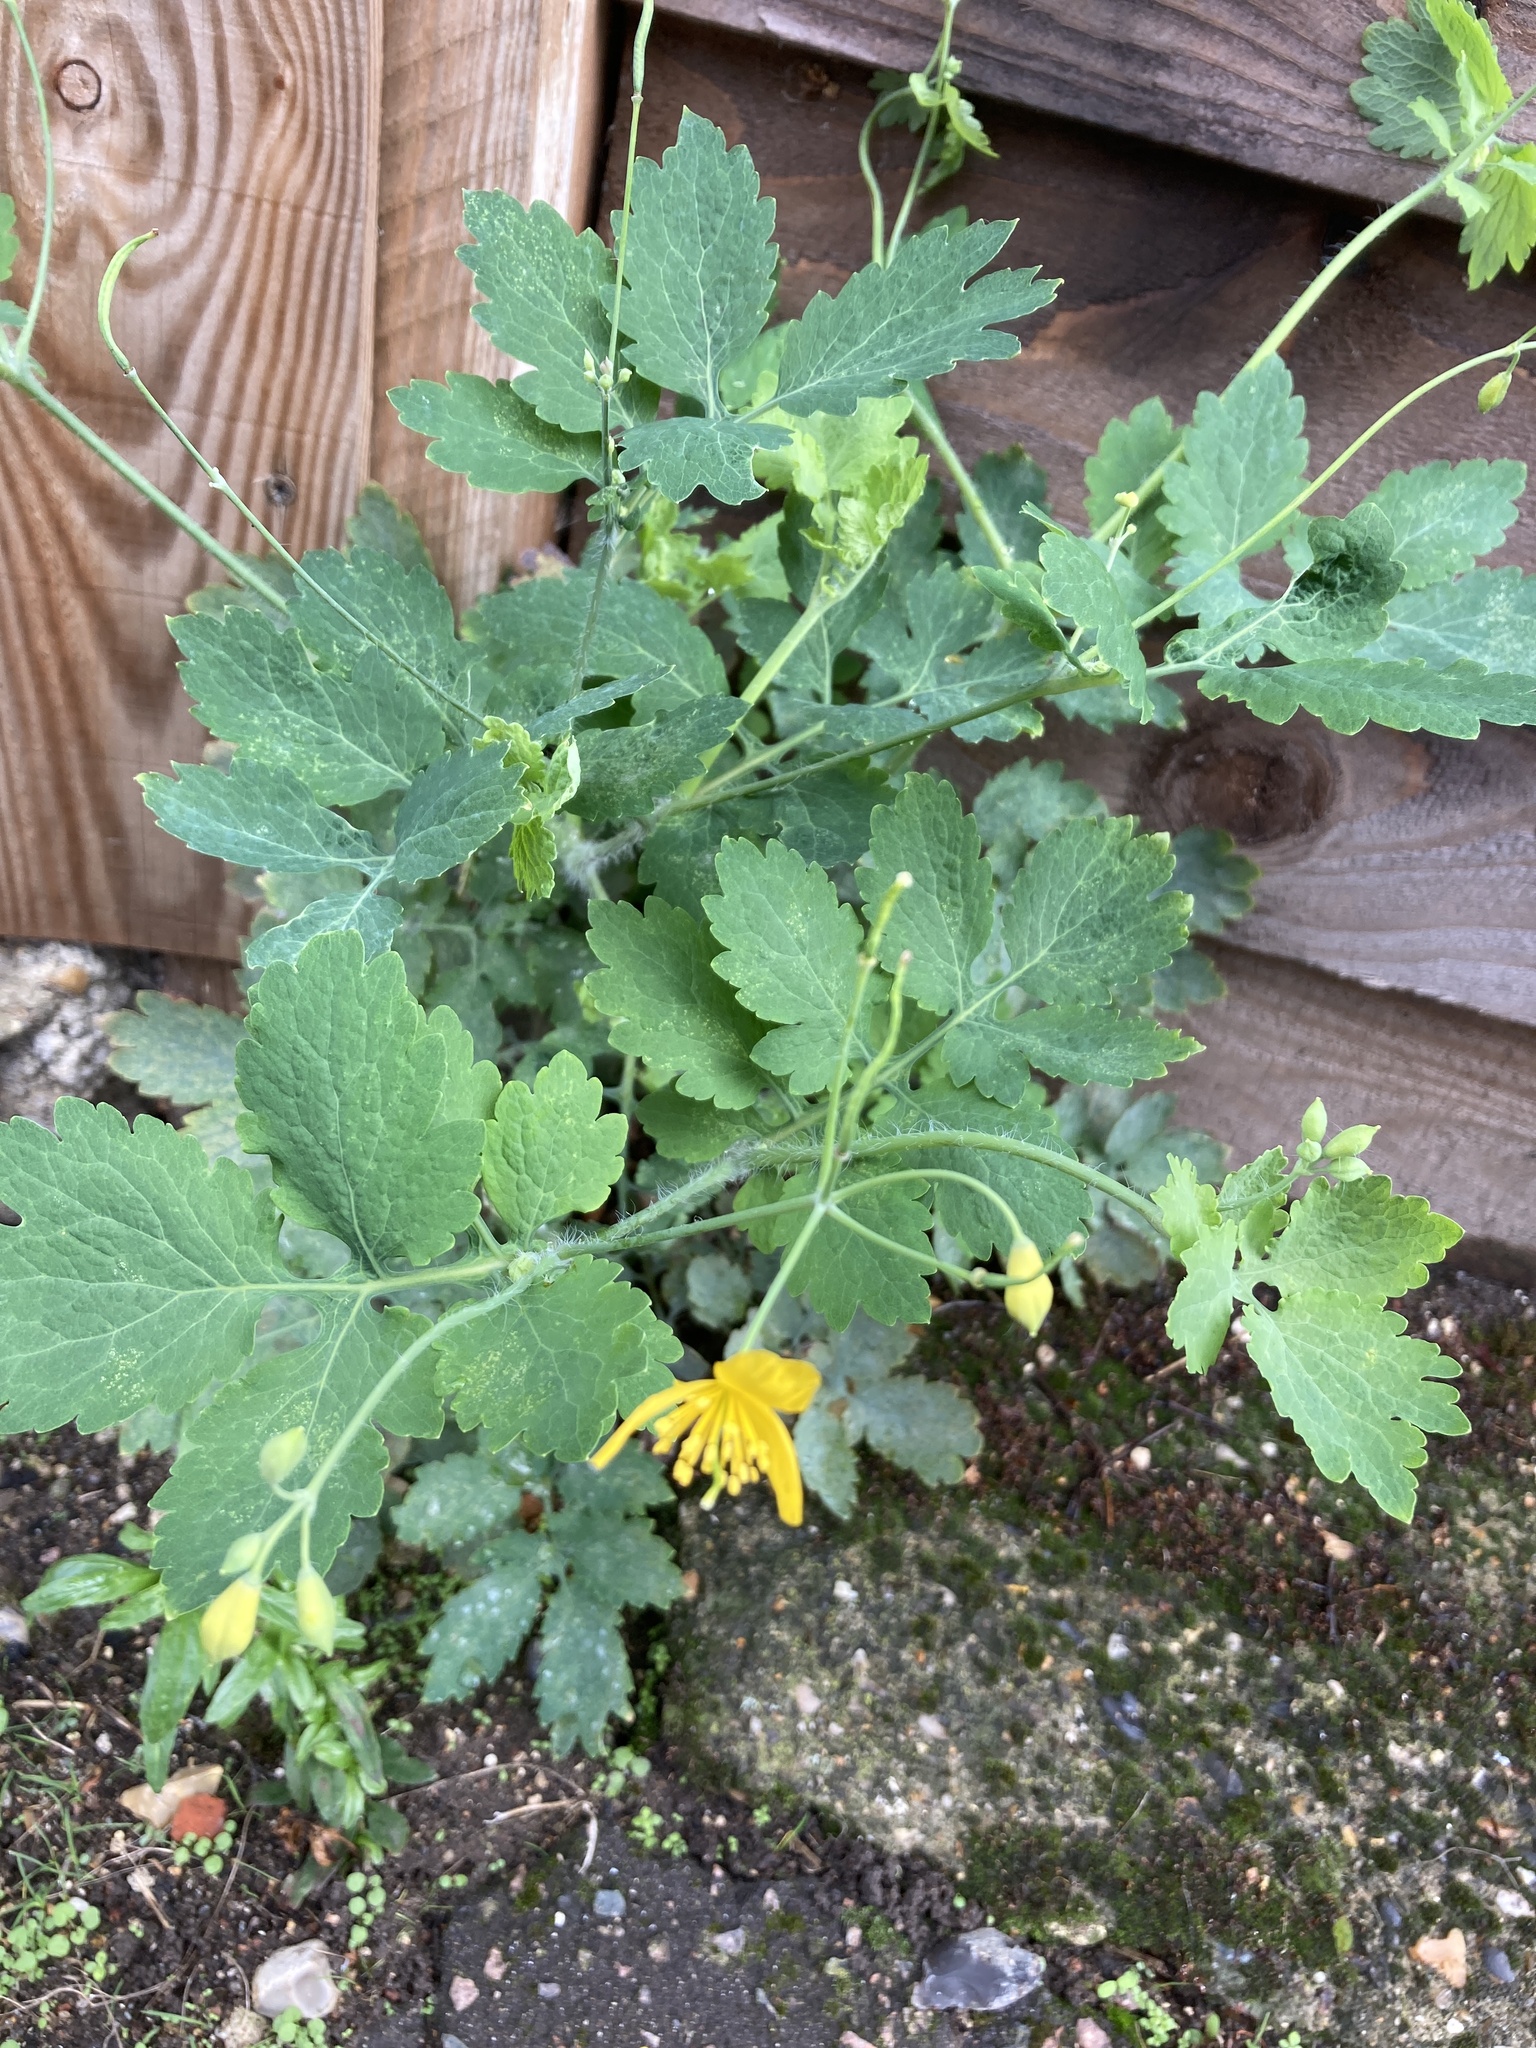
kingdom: Plantae
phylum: Tracheophyta
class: Magnoliopsida
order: Ranunculales
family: Papaveraceae
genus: Chelidonium
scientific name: Chelidonium majus
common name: Greater celandine
